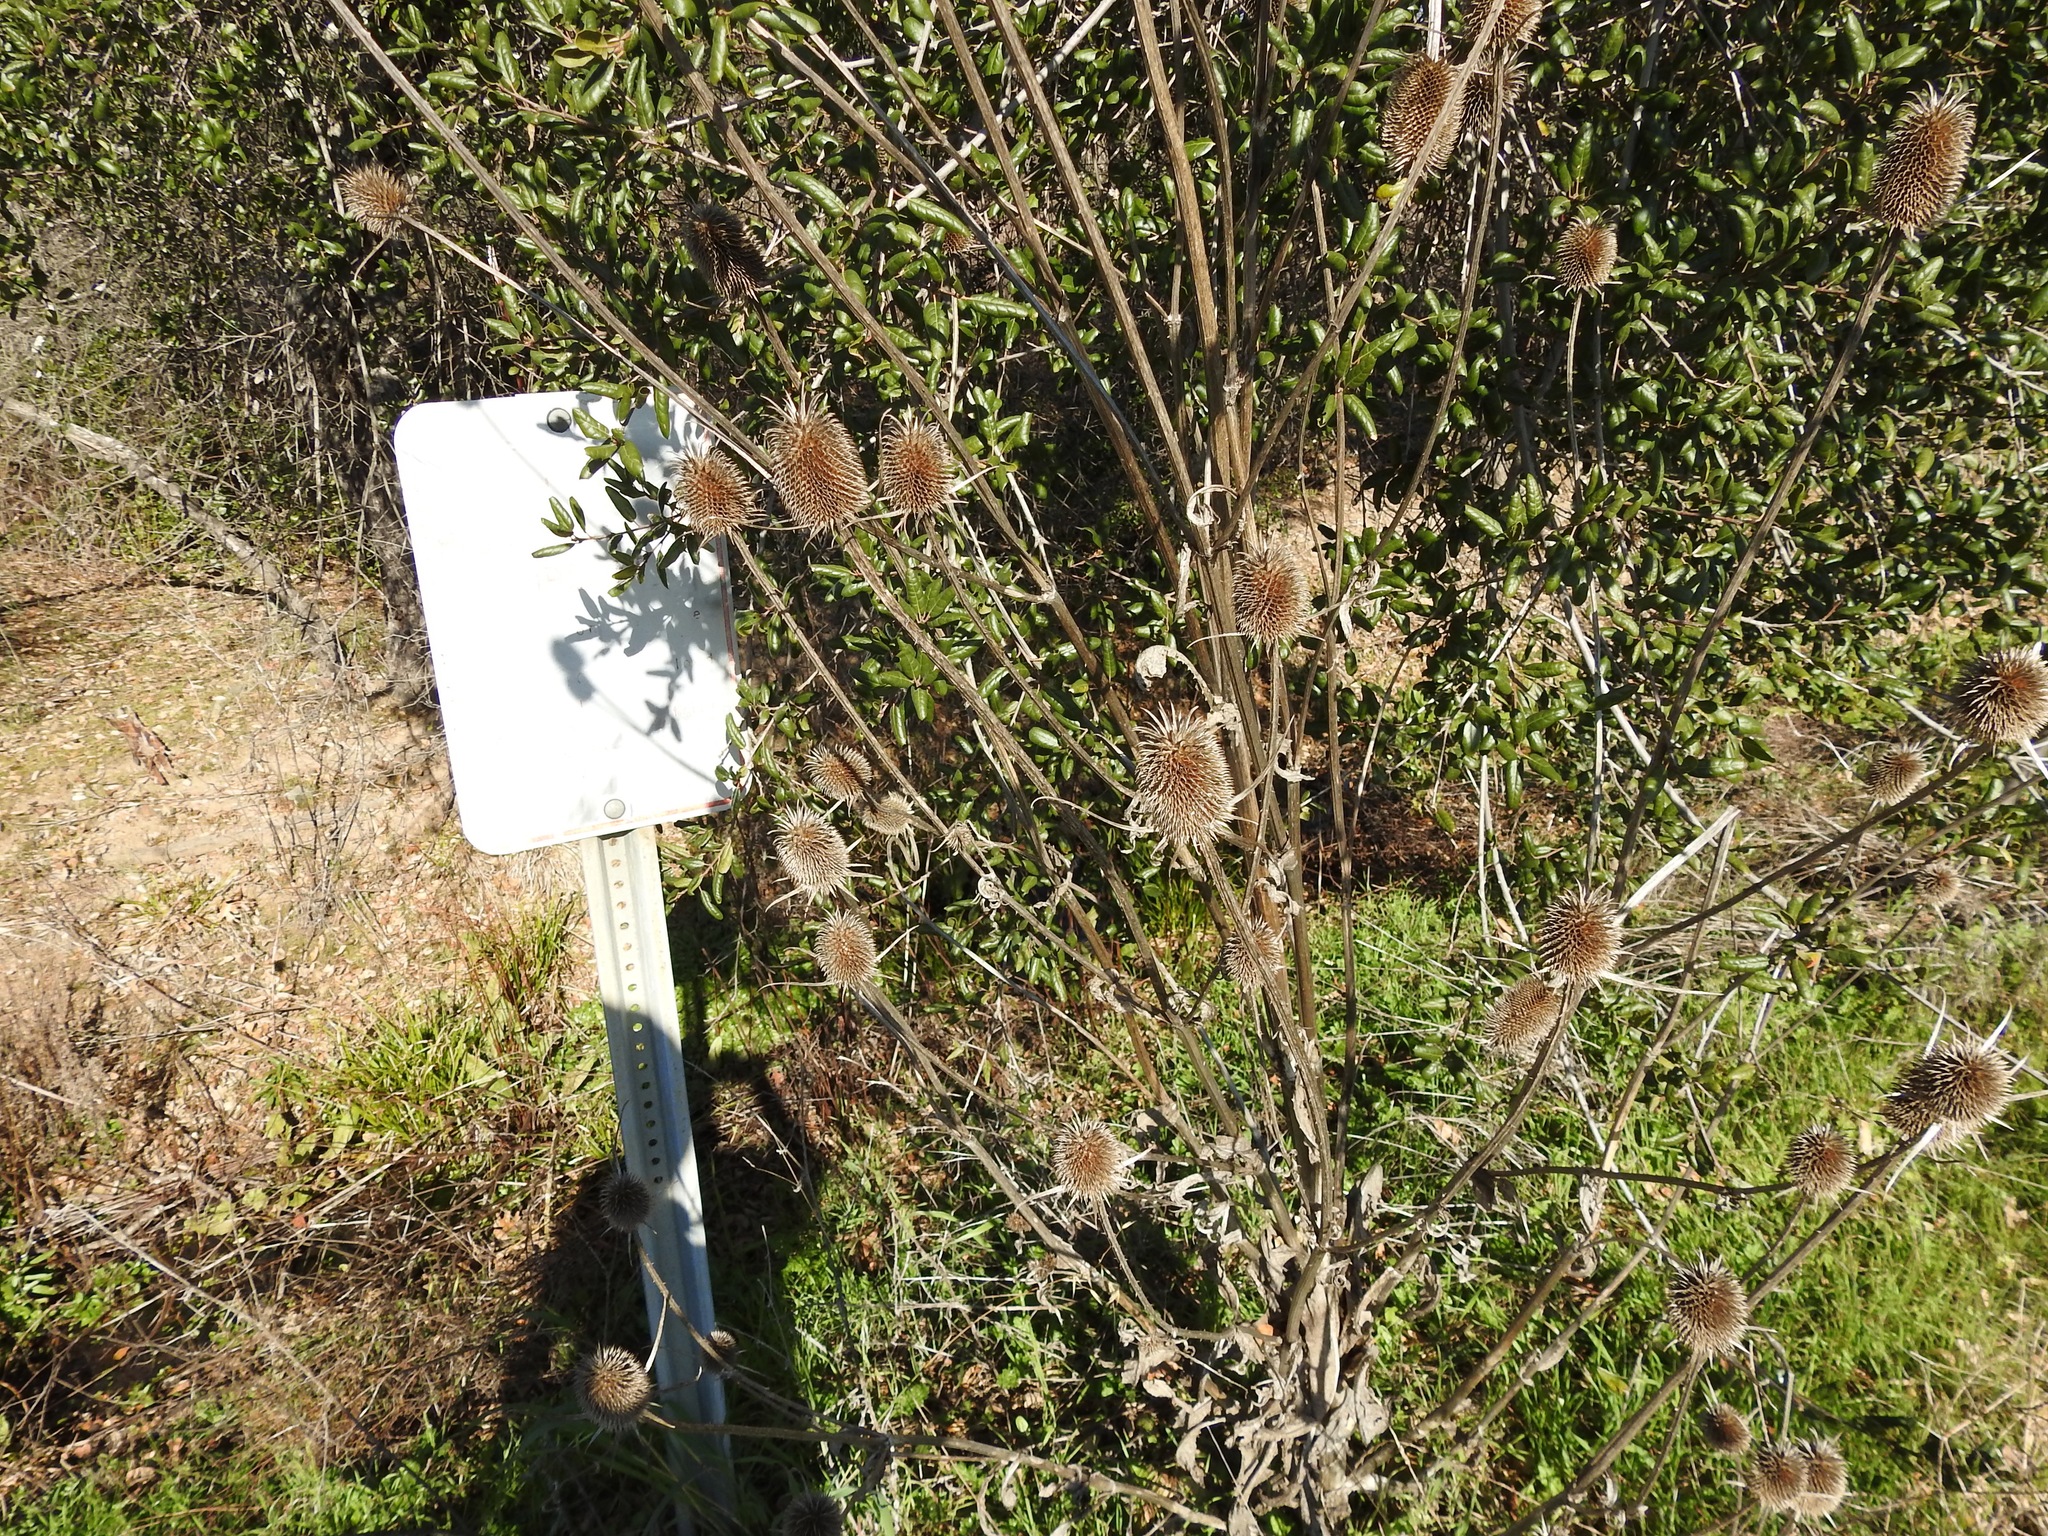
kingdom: Plantae
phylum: Tracheophyta
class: Magnoliopsida
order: Dipsacales
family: Caprifoliaceae
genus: Dipsacus
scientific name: Dipsacus sativus
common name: Fuller's teasel
